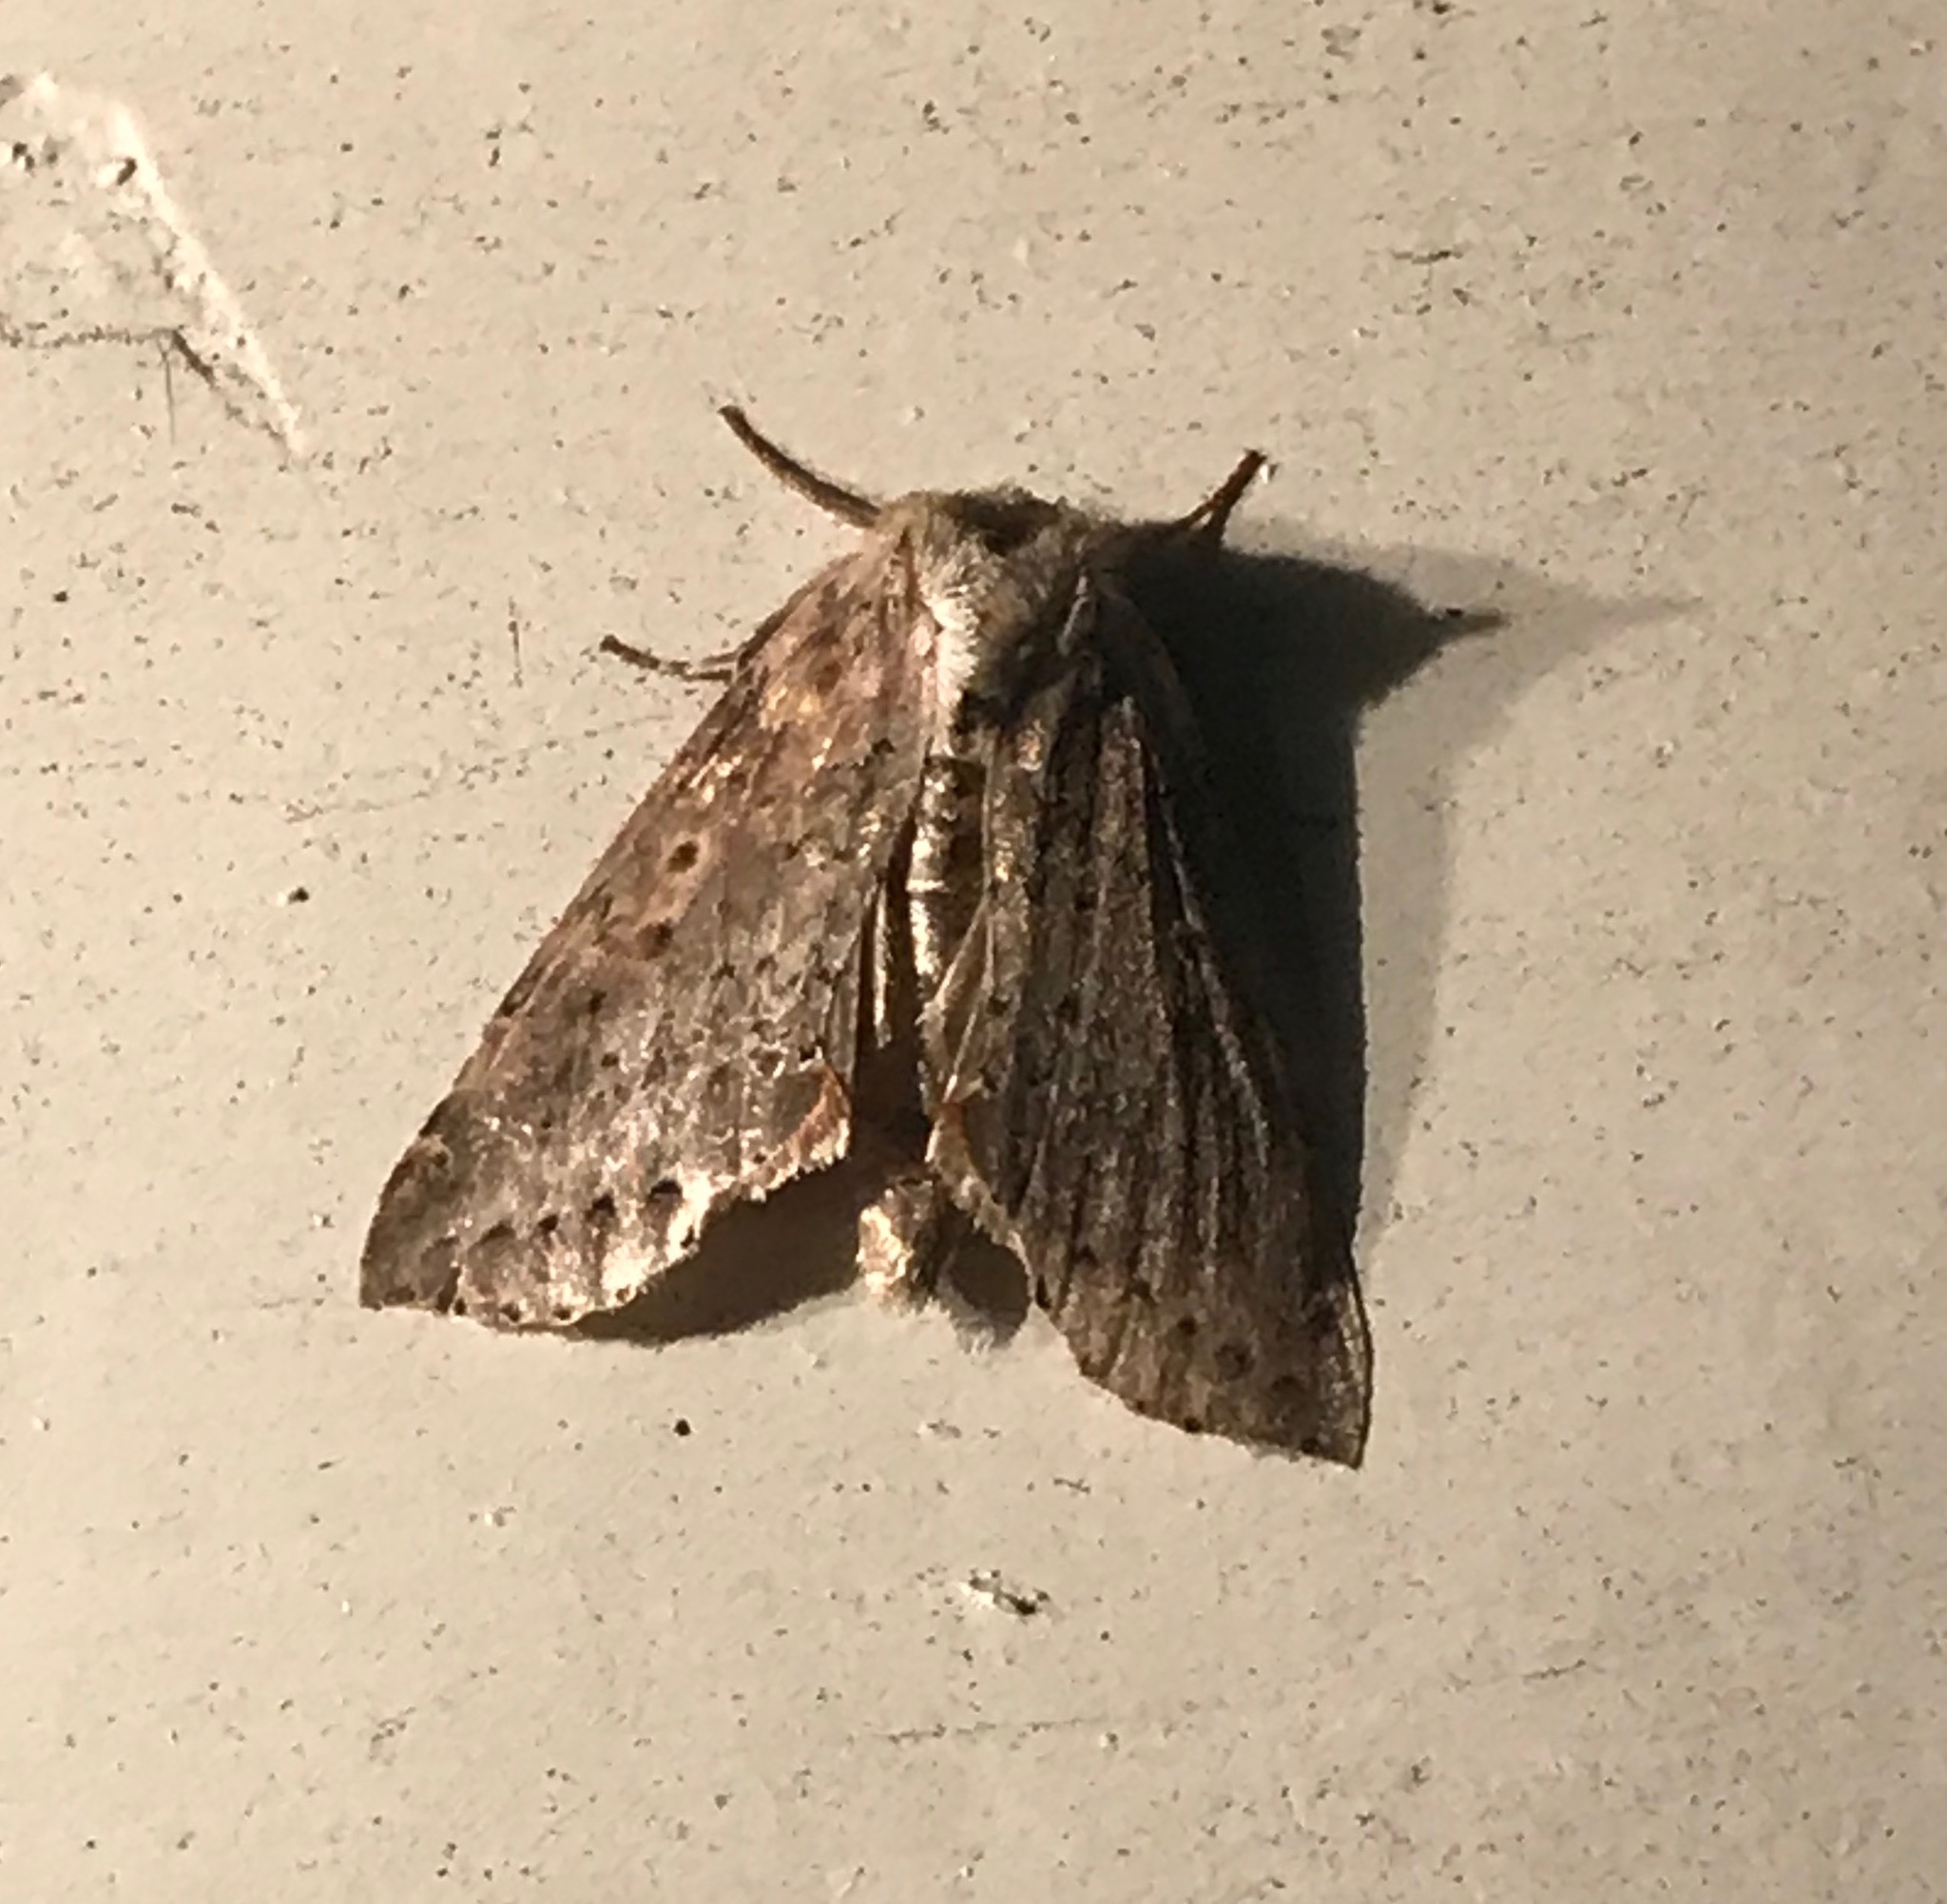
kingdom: Animalia
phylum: Arthropoda
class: Insecta
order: Lepidoptera
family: Drepanidae
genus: Pseudothyatira
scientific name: Pseudothyatira cymatophoroides
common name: Tufted thyatirid moth
